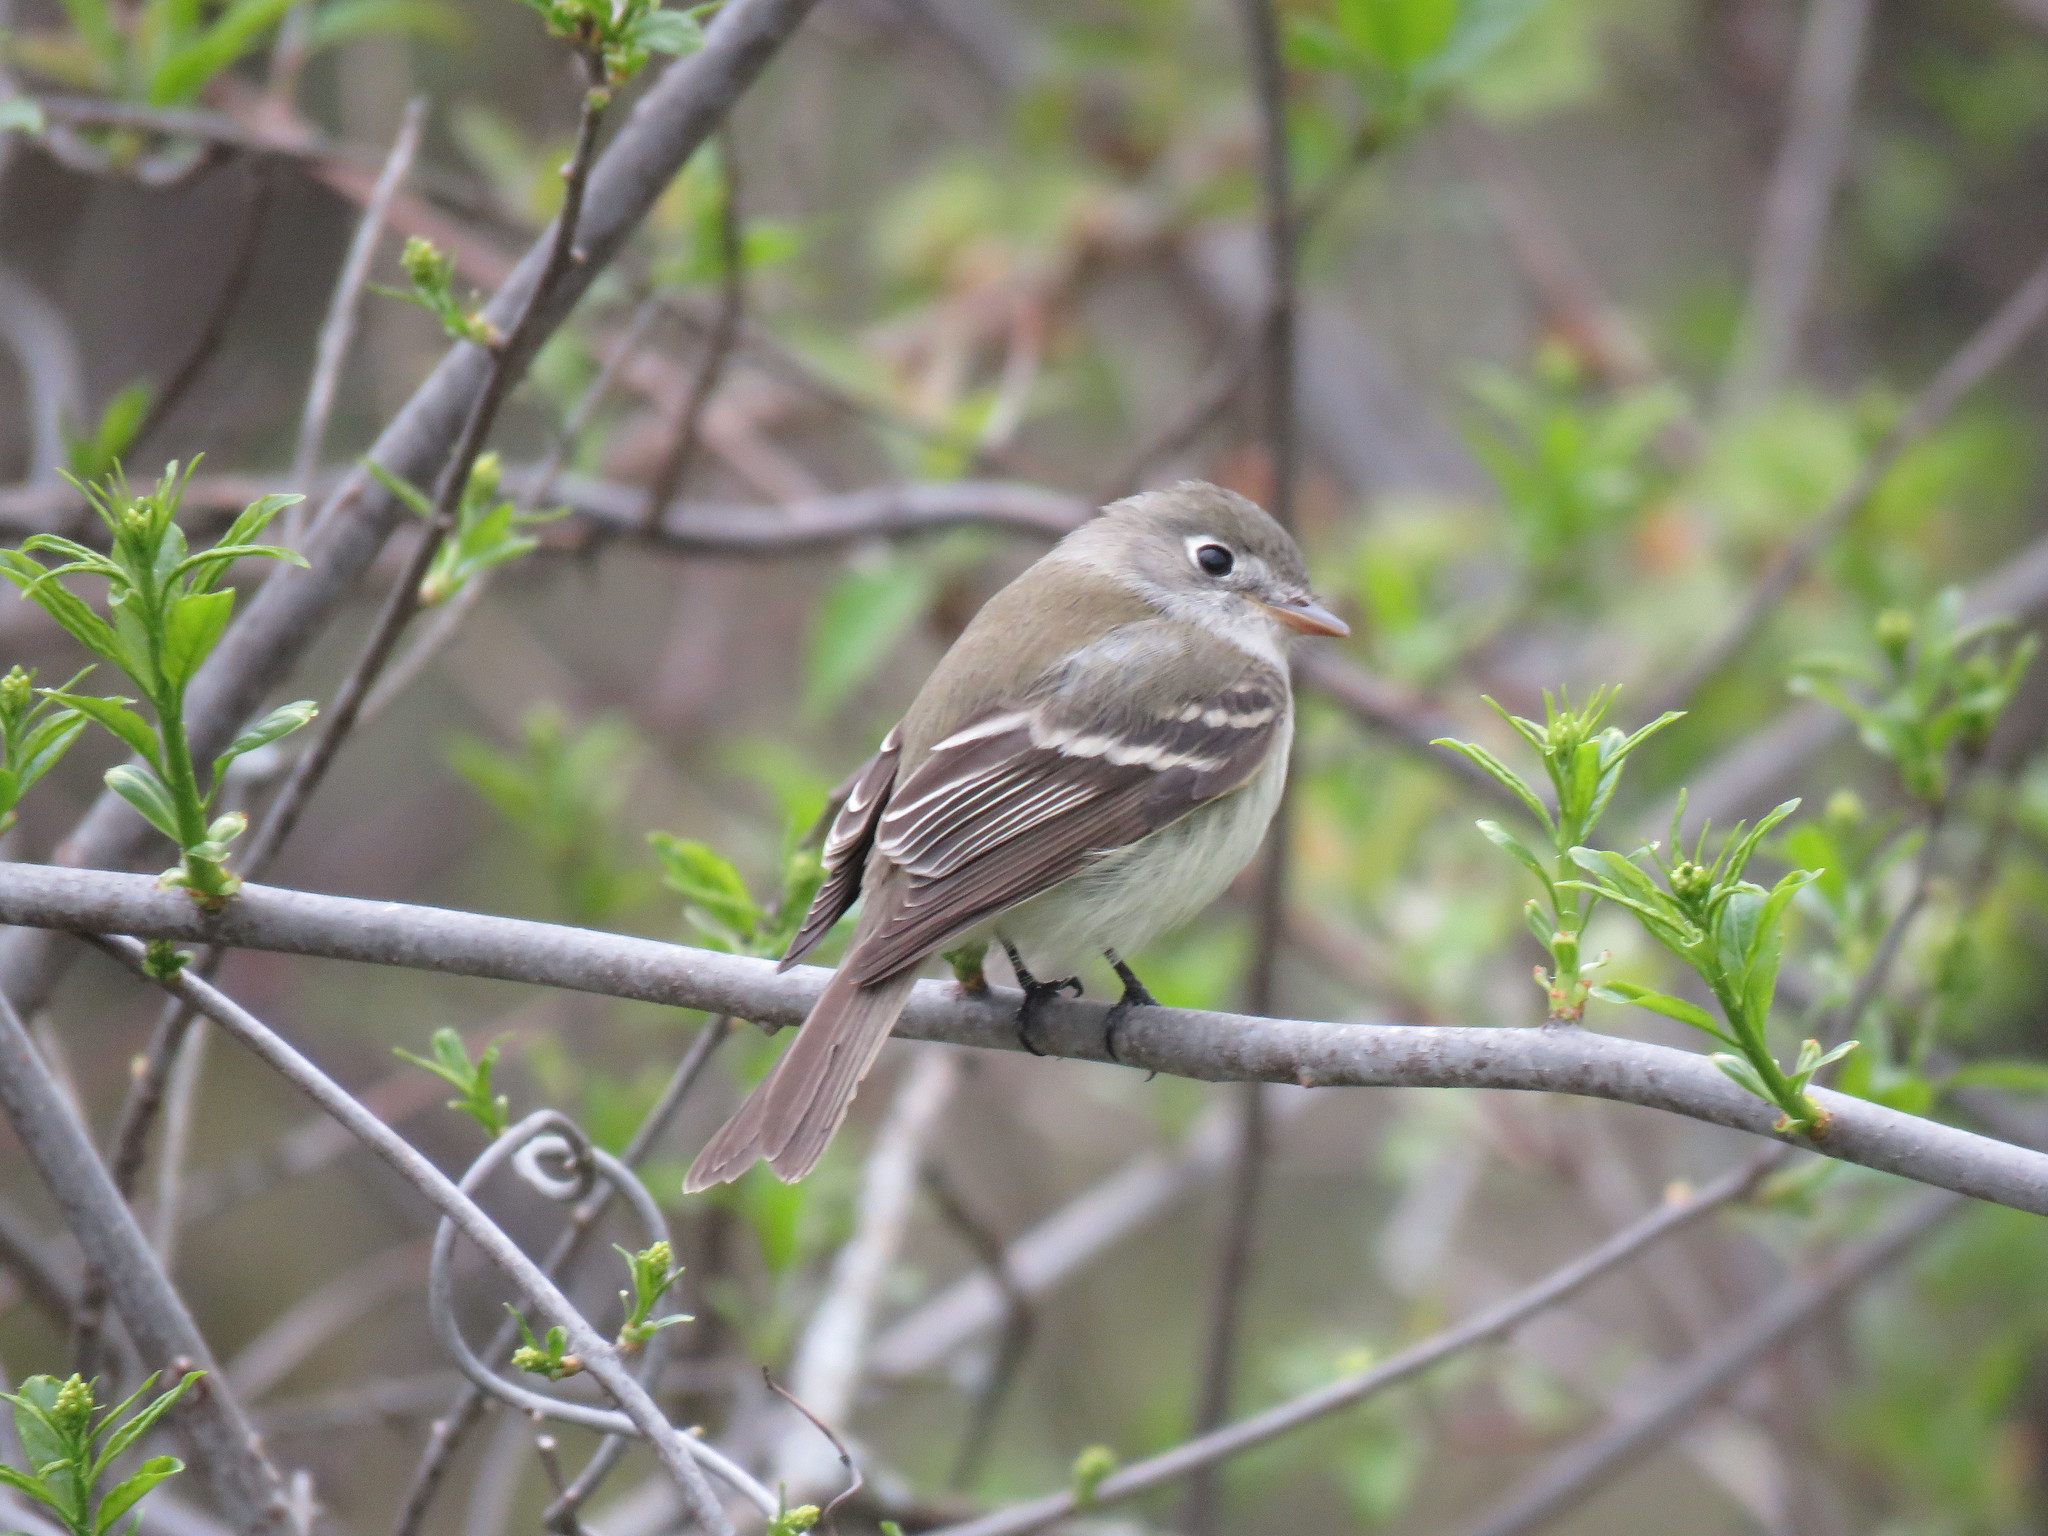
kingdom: Animalia
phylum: Chordata
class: Aves
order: Passeriformes
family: Tyrannidae
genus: Empidonax
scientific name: Empidonax minimus
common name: Least flycatcher
